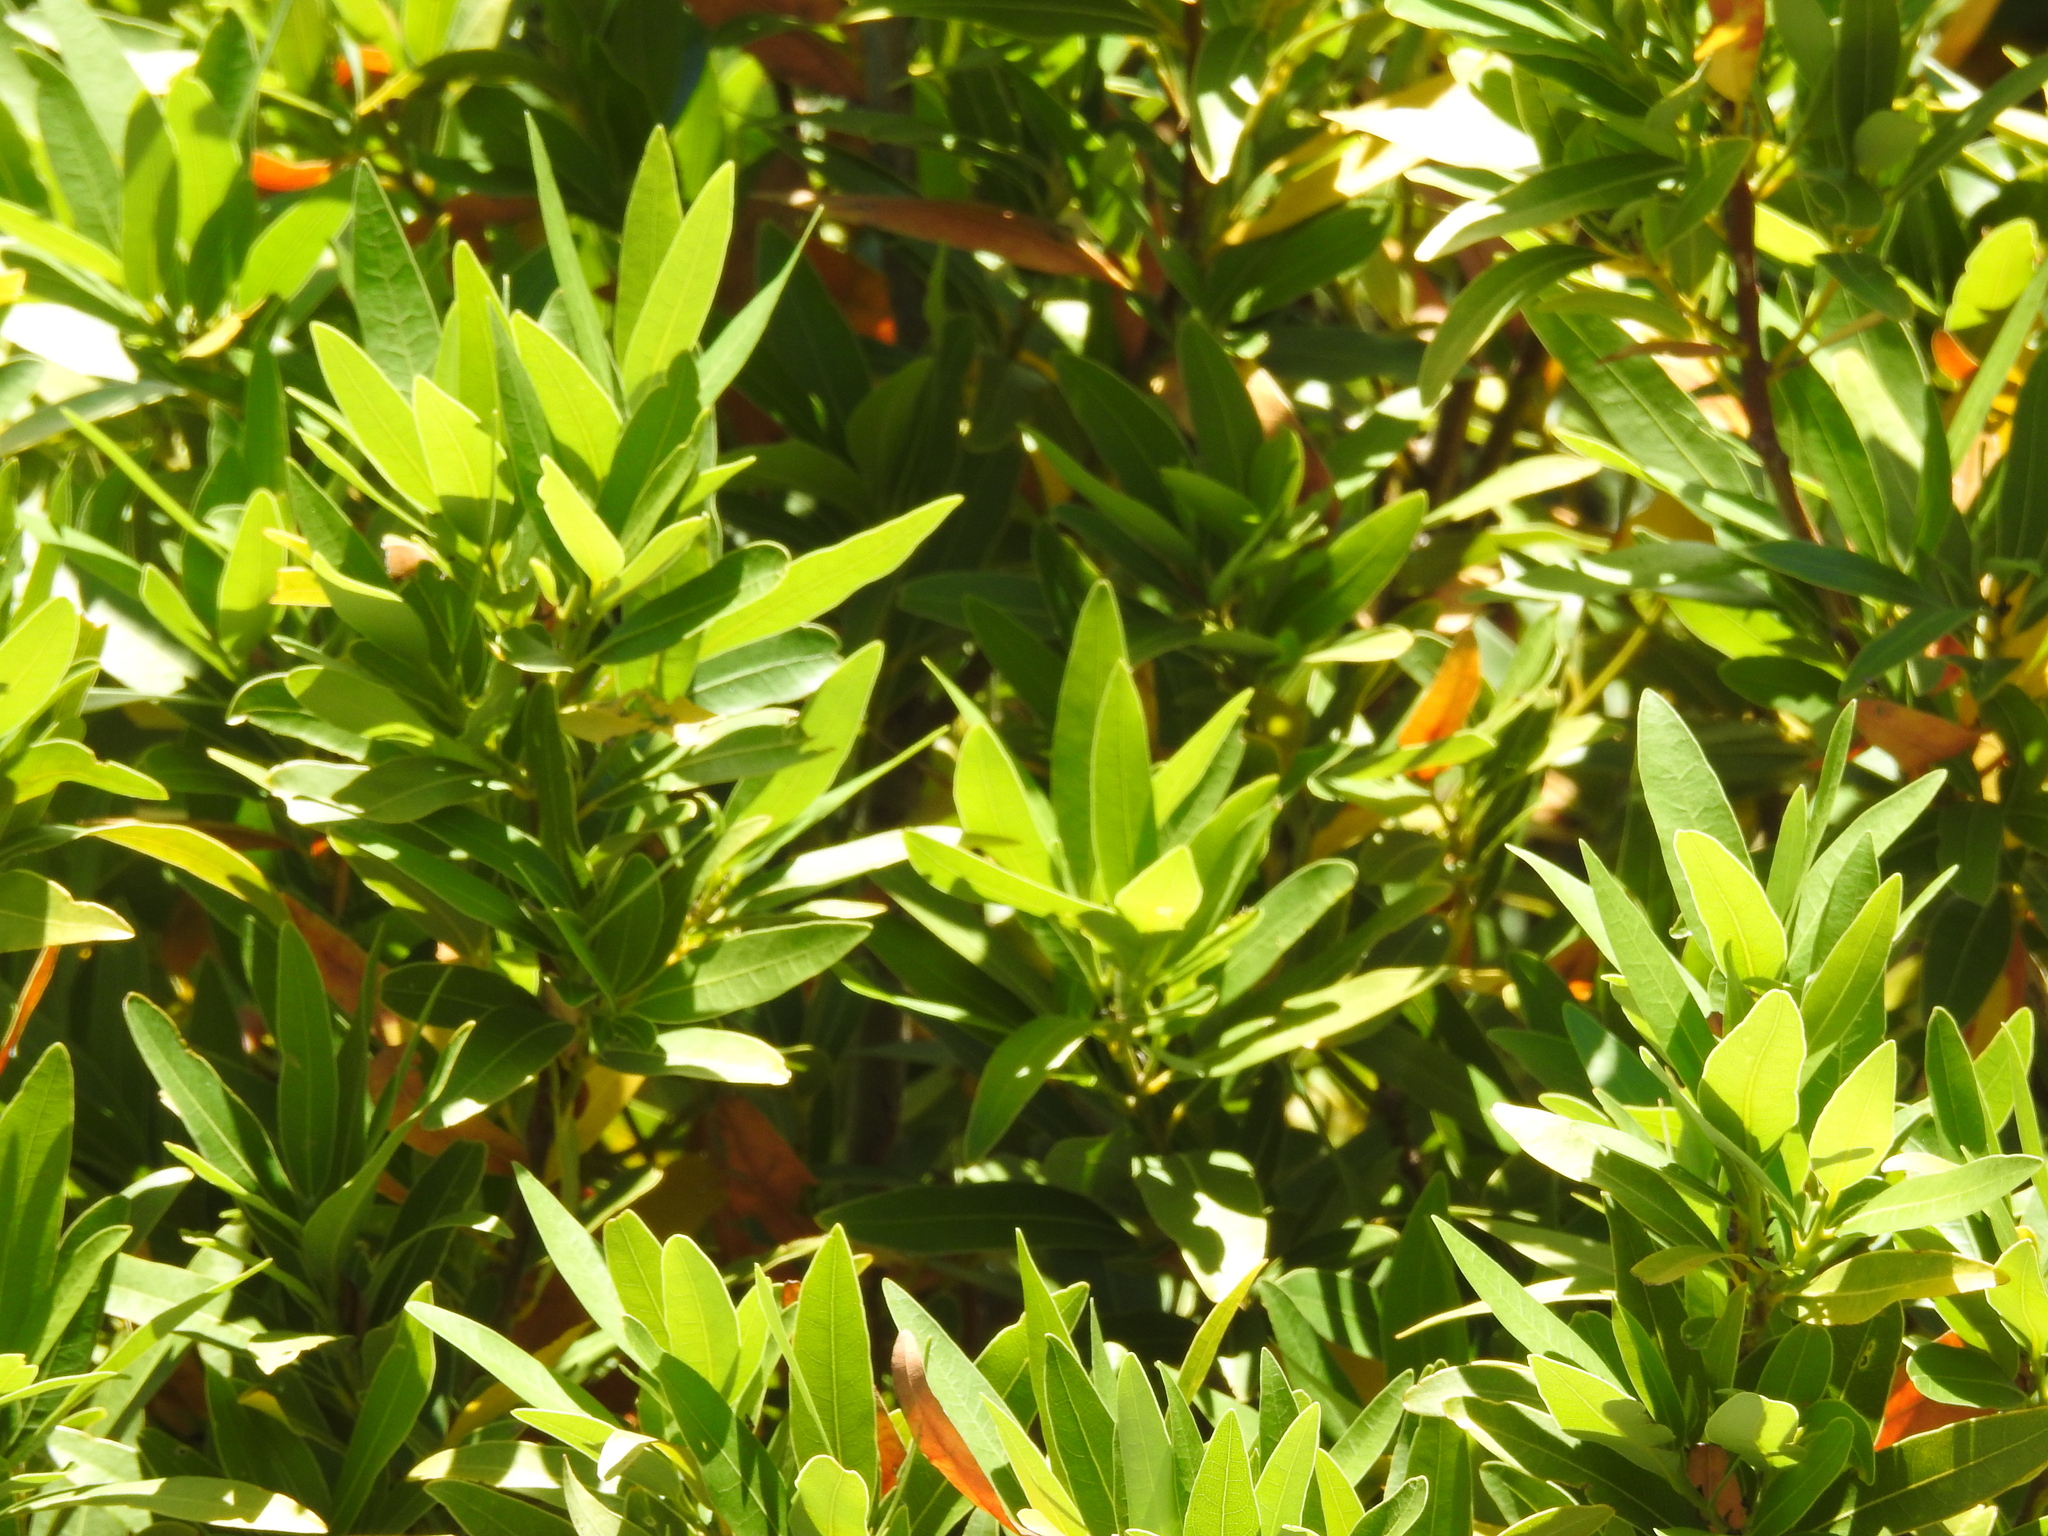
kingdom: Plantae
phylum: Tracheophyta
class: Magnoliopsida
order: Laurales
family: Lauraceae
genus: Umbellularia
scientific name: Umbellularia californica
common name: California bay
